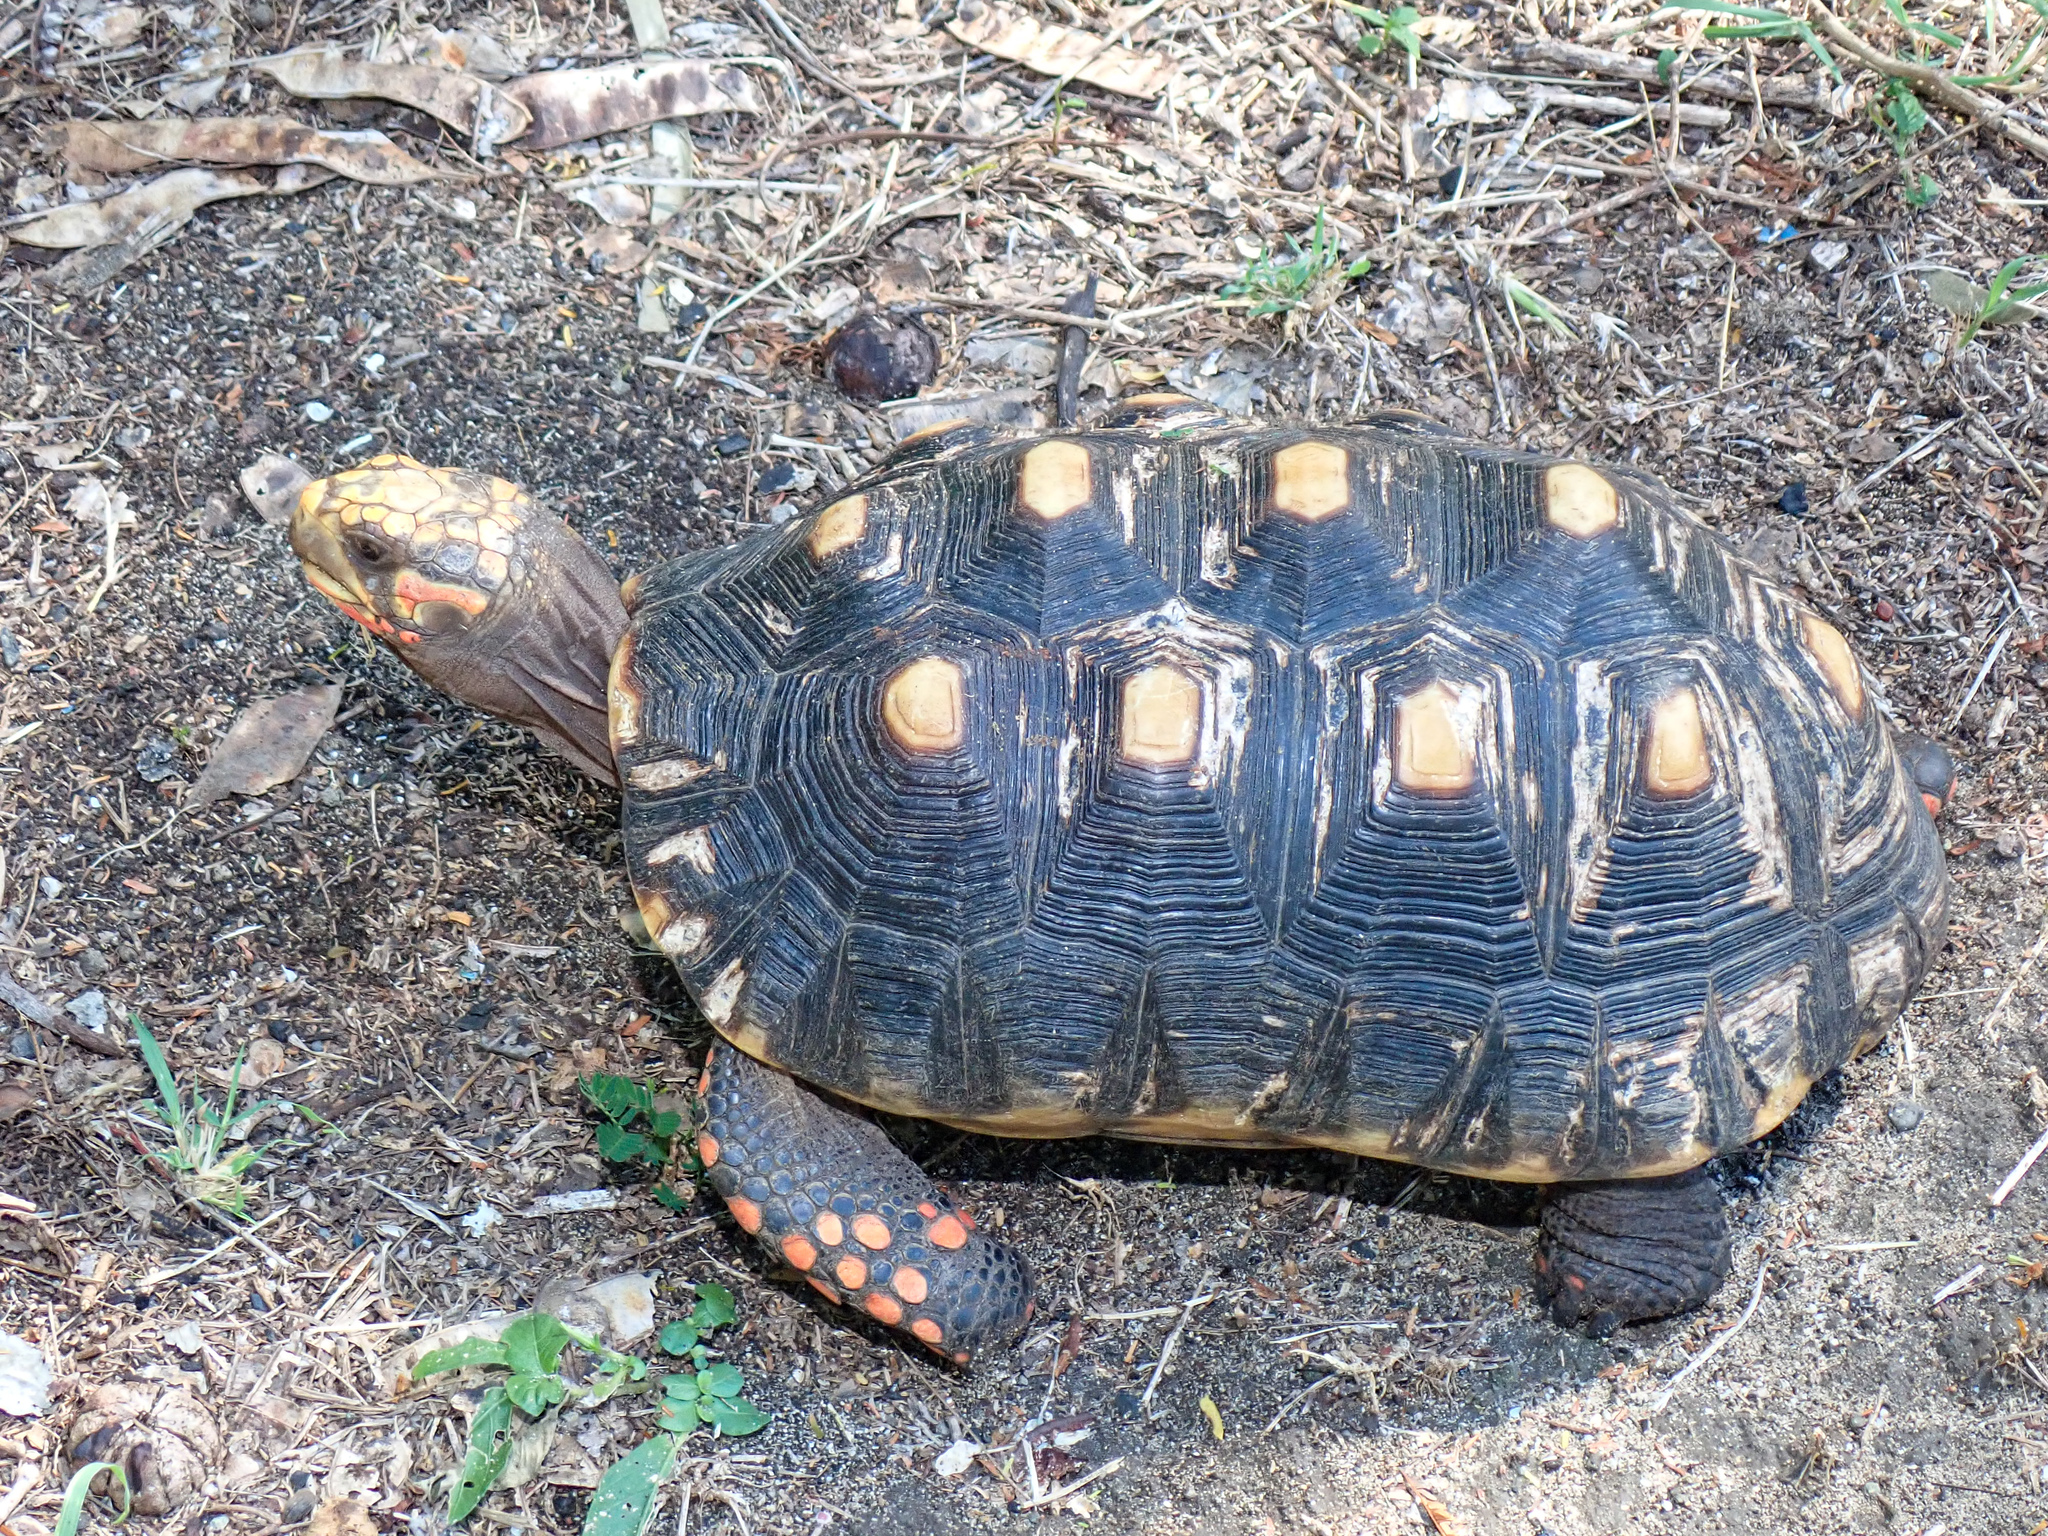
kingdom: Animalia
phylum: Chordata
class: Testudines
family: Testudinidae
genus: Chelonoidis
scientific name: Chelonoidis carbonarius
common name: Red-footed tortoise
